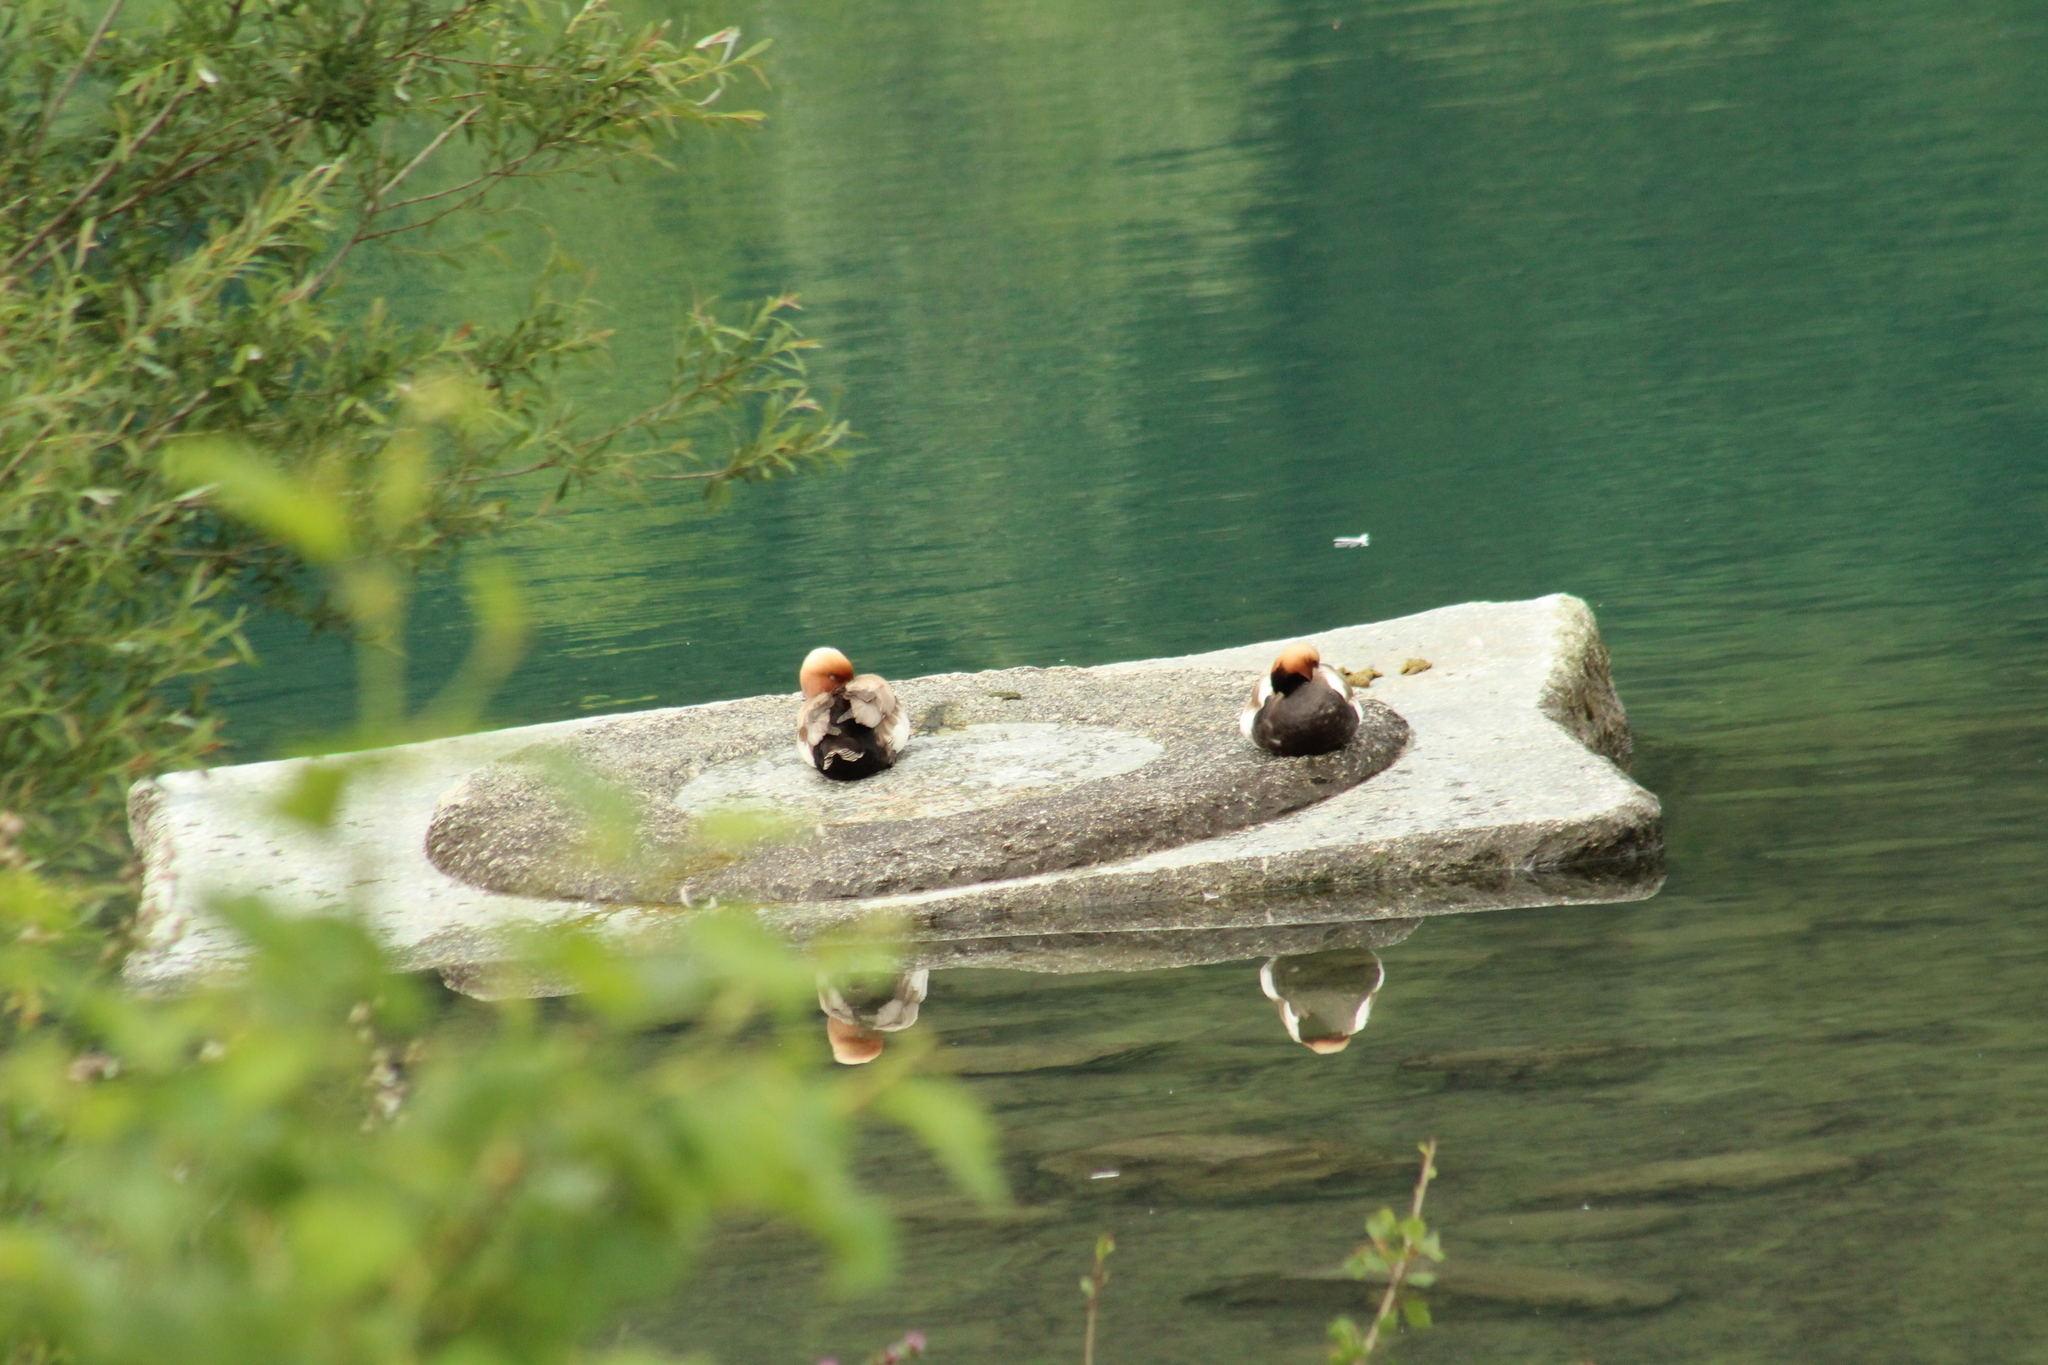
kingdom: Animalia
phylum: Chordata
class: Aves
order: Anseriformes
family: Anatidae
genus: Netta
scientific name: Netta rufina
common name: Red-crested pochard
